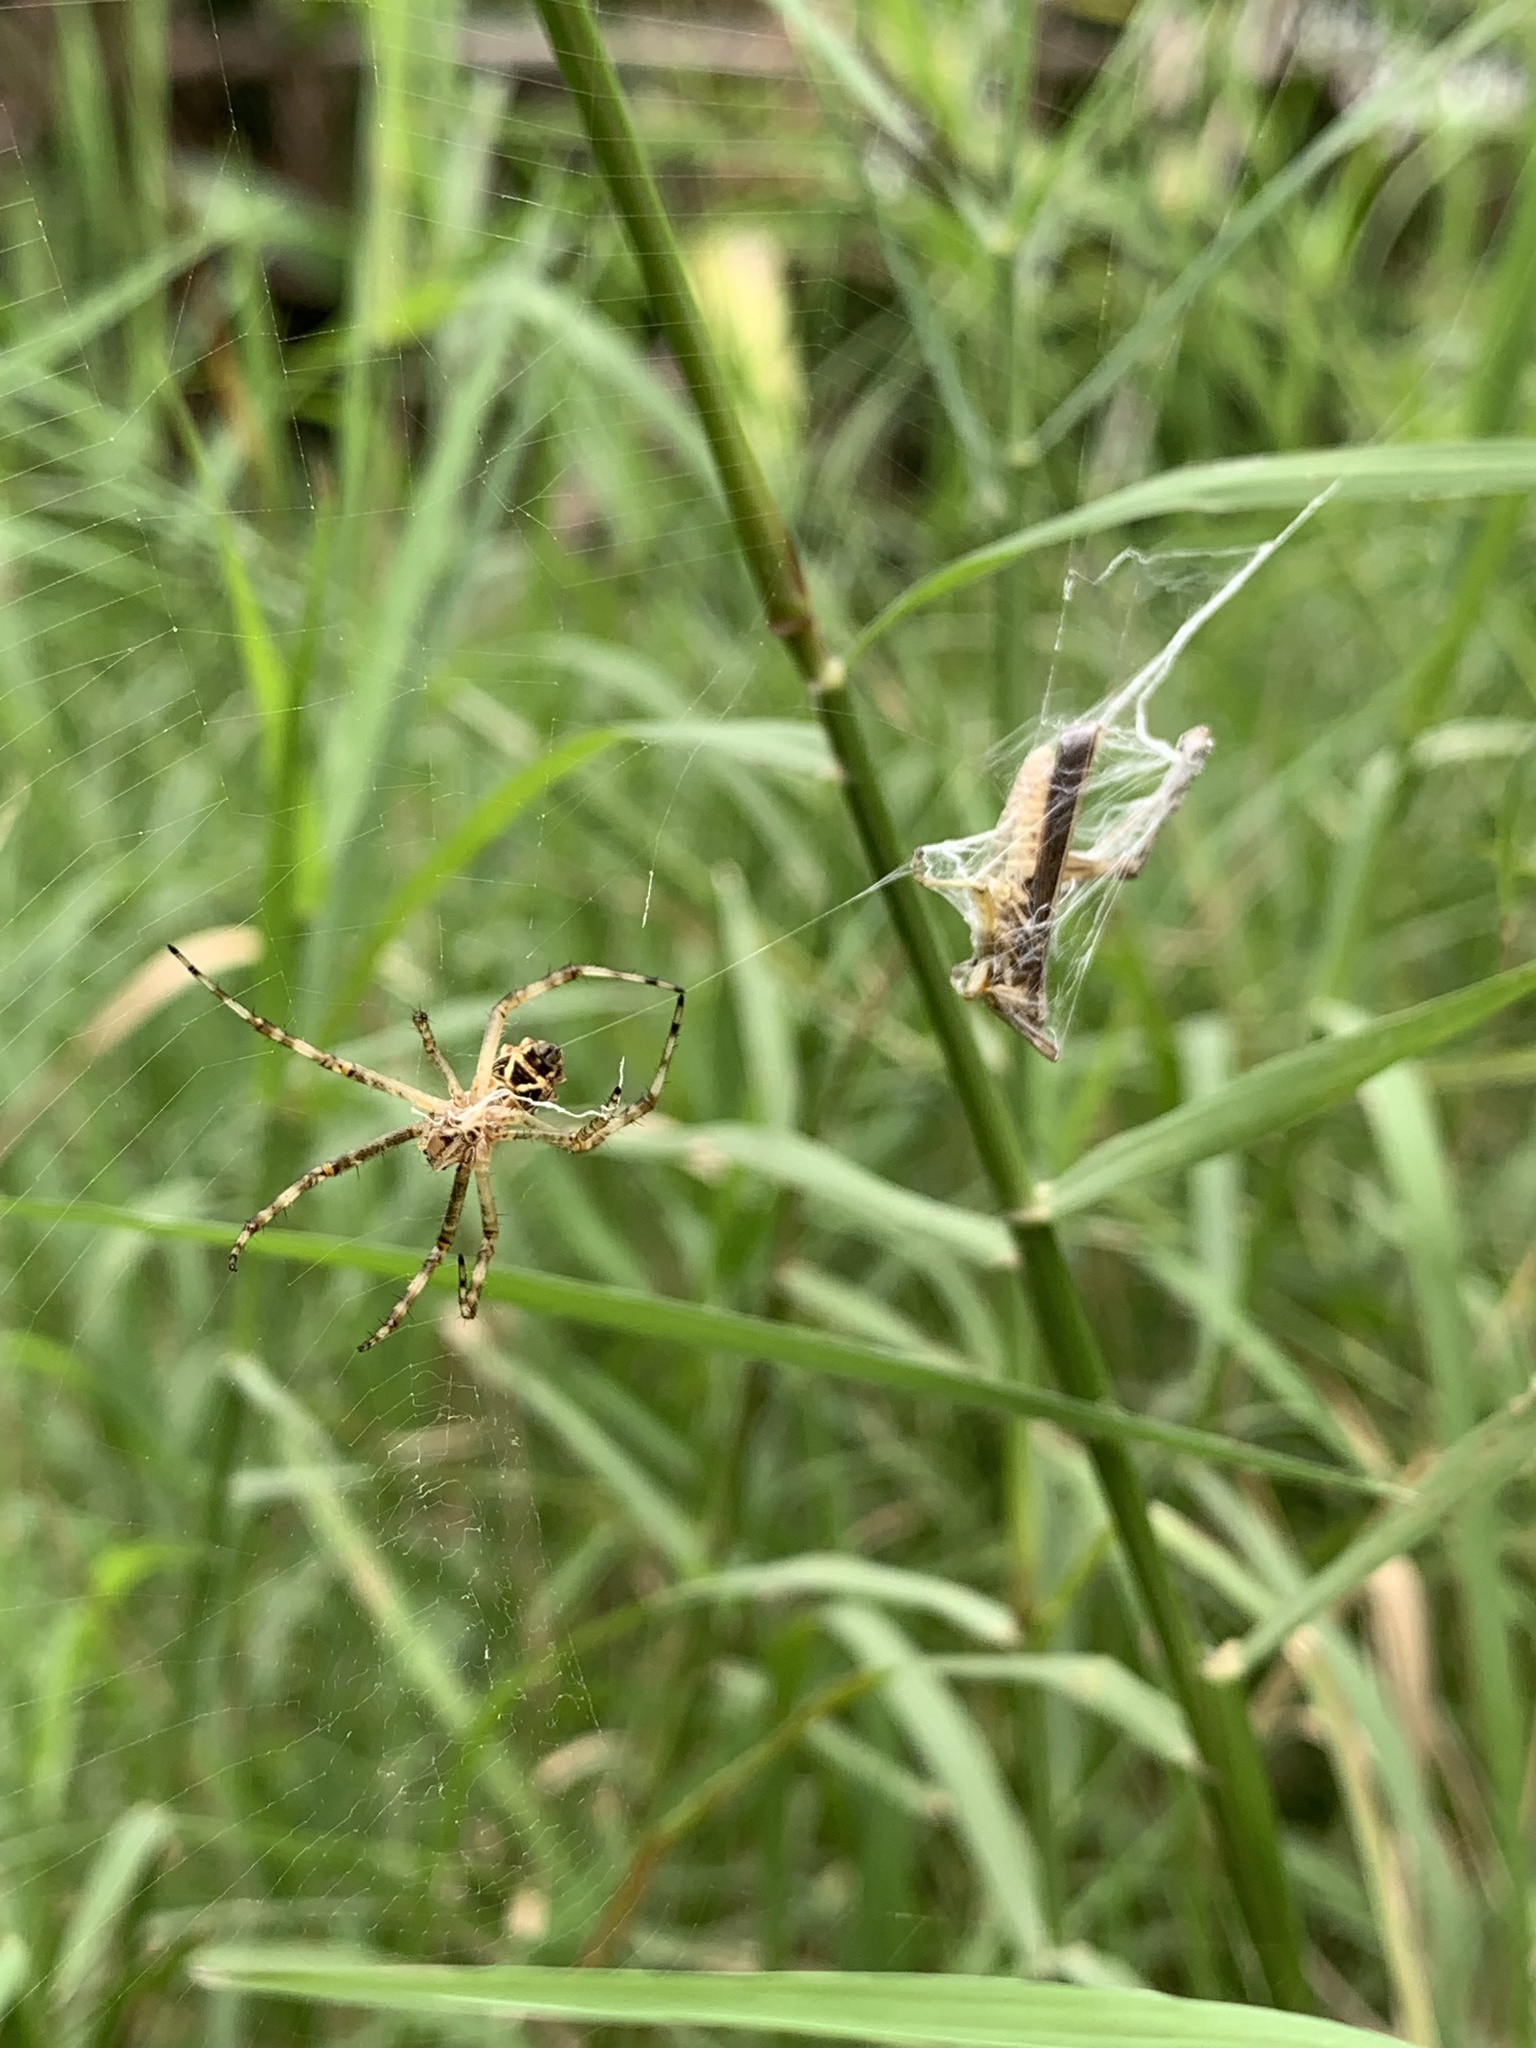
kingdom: Animalia
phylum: Arthropoda
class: Arachnida
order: Araneae
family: Araneidae
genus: Argiope
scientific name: Argiope argentata
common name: Orb weavers
